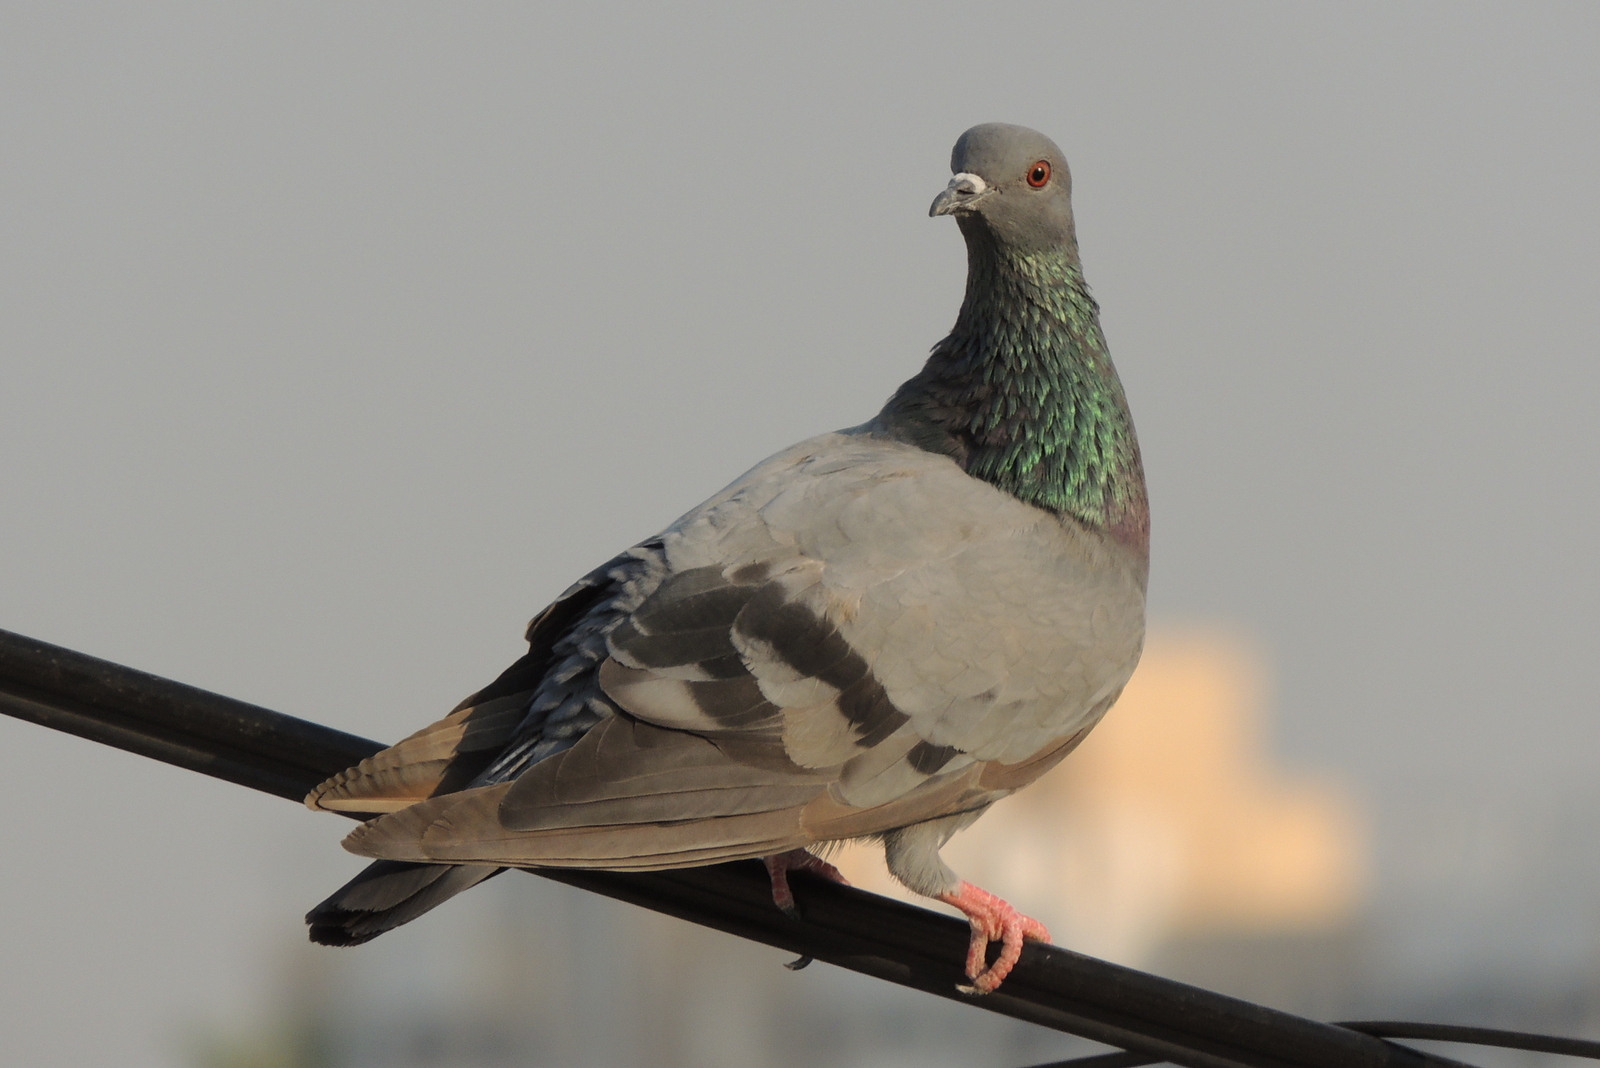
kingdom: Animalia
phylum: Chordata
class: Aves
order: Columbiformes
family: Columbidae
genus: Columba
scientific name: Columba livia
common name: Rock pigeon
